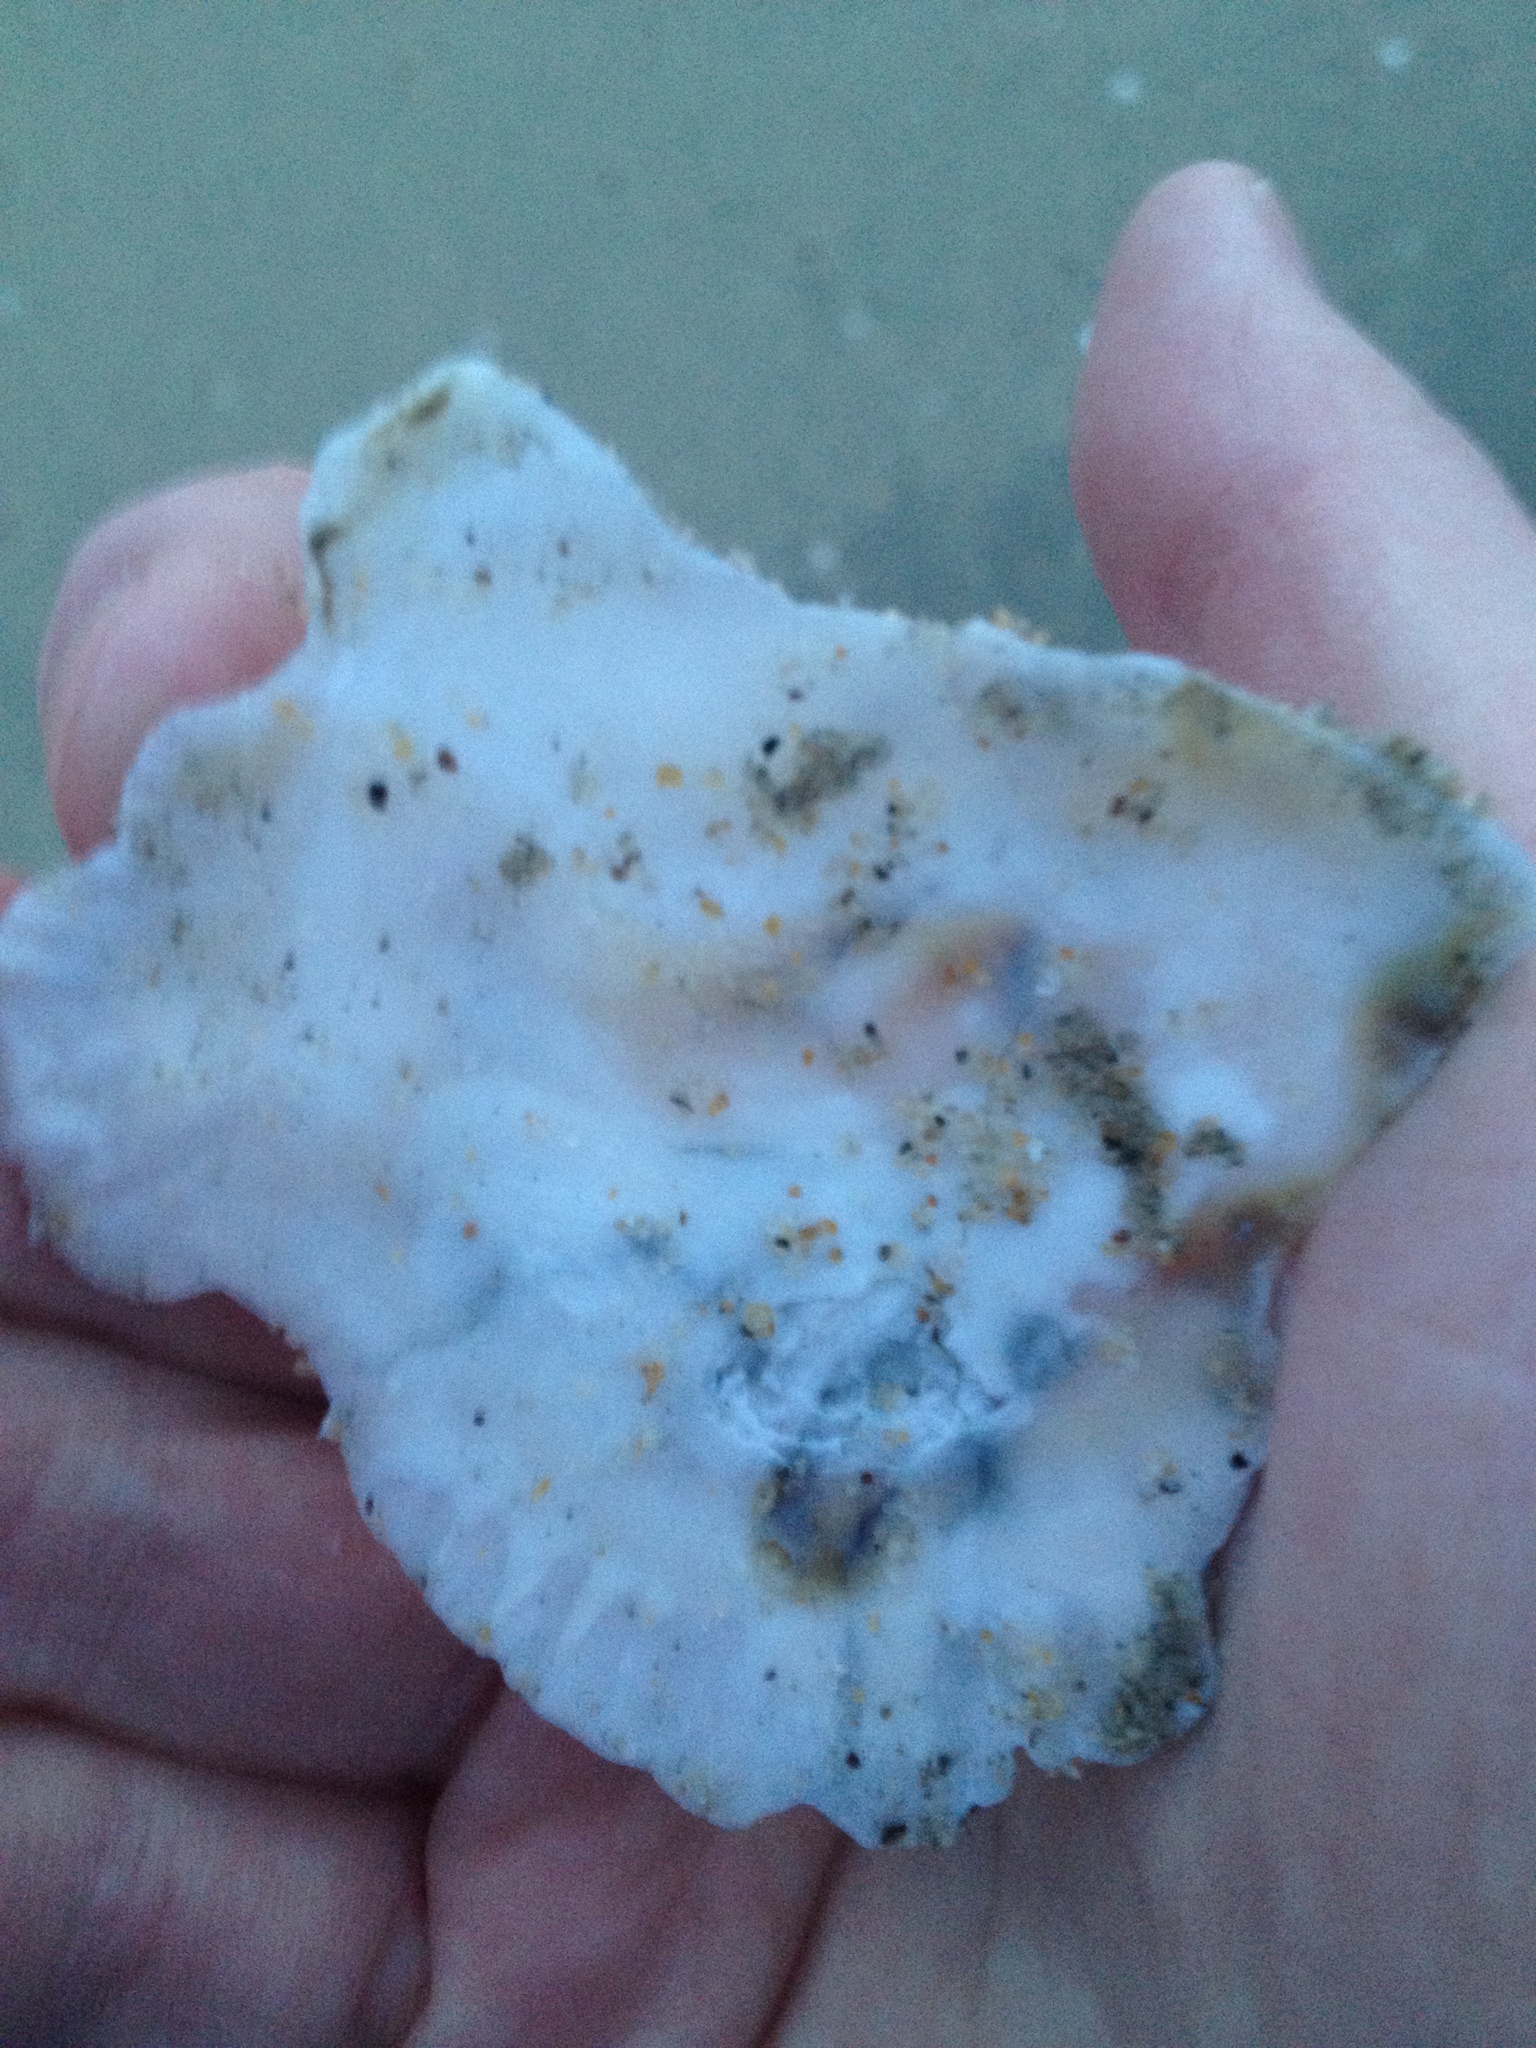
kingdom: Animalia
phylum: Mollusca
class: Bivalvia
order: Ostreida
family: Ostreidae
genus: Ostrea
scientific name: Ostrea edulis
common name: Flat oyster
